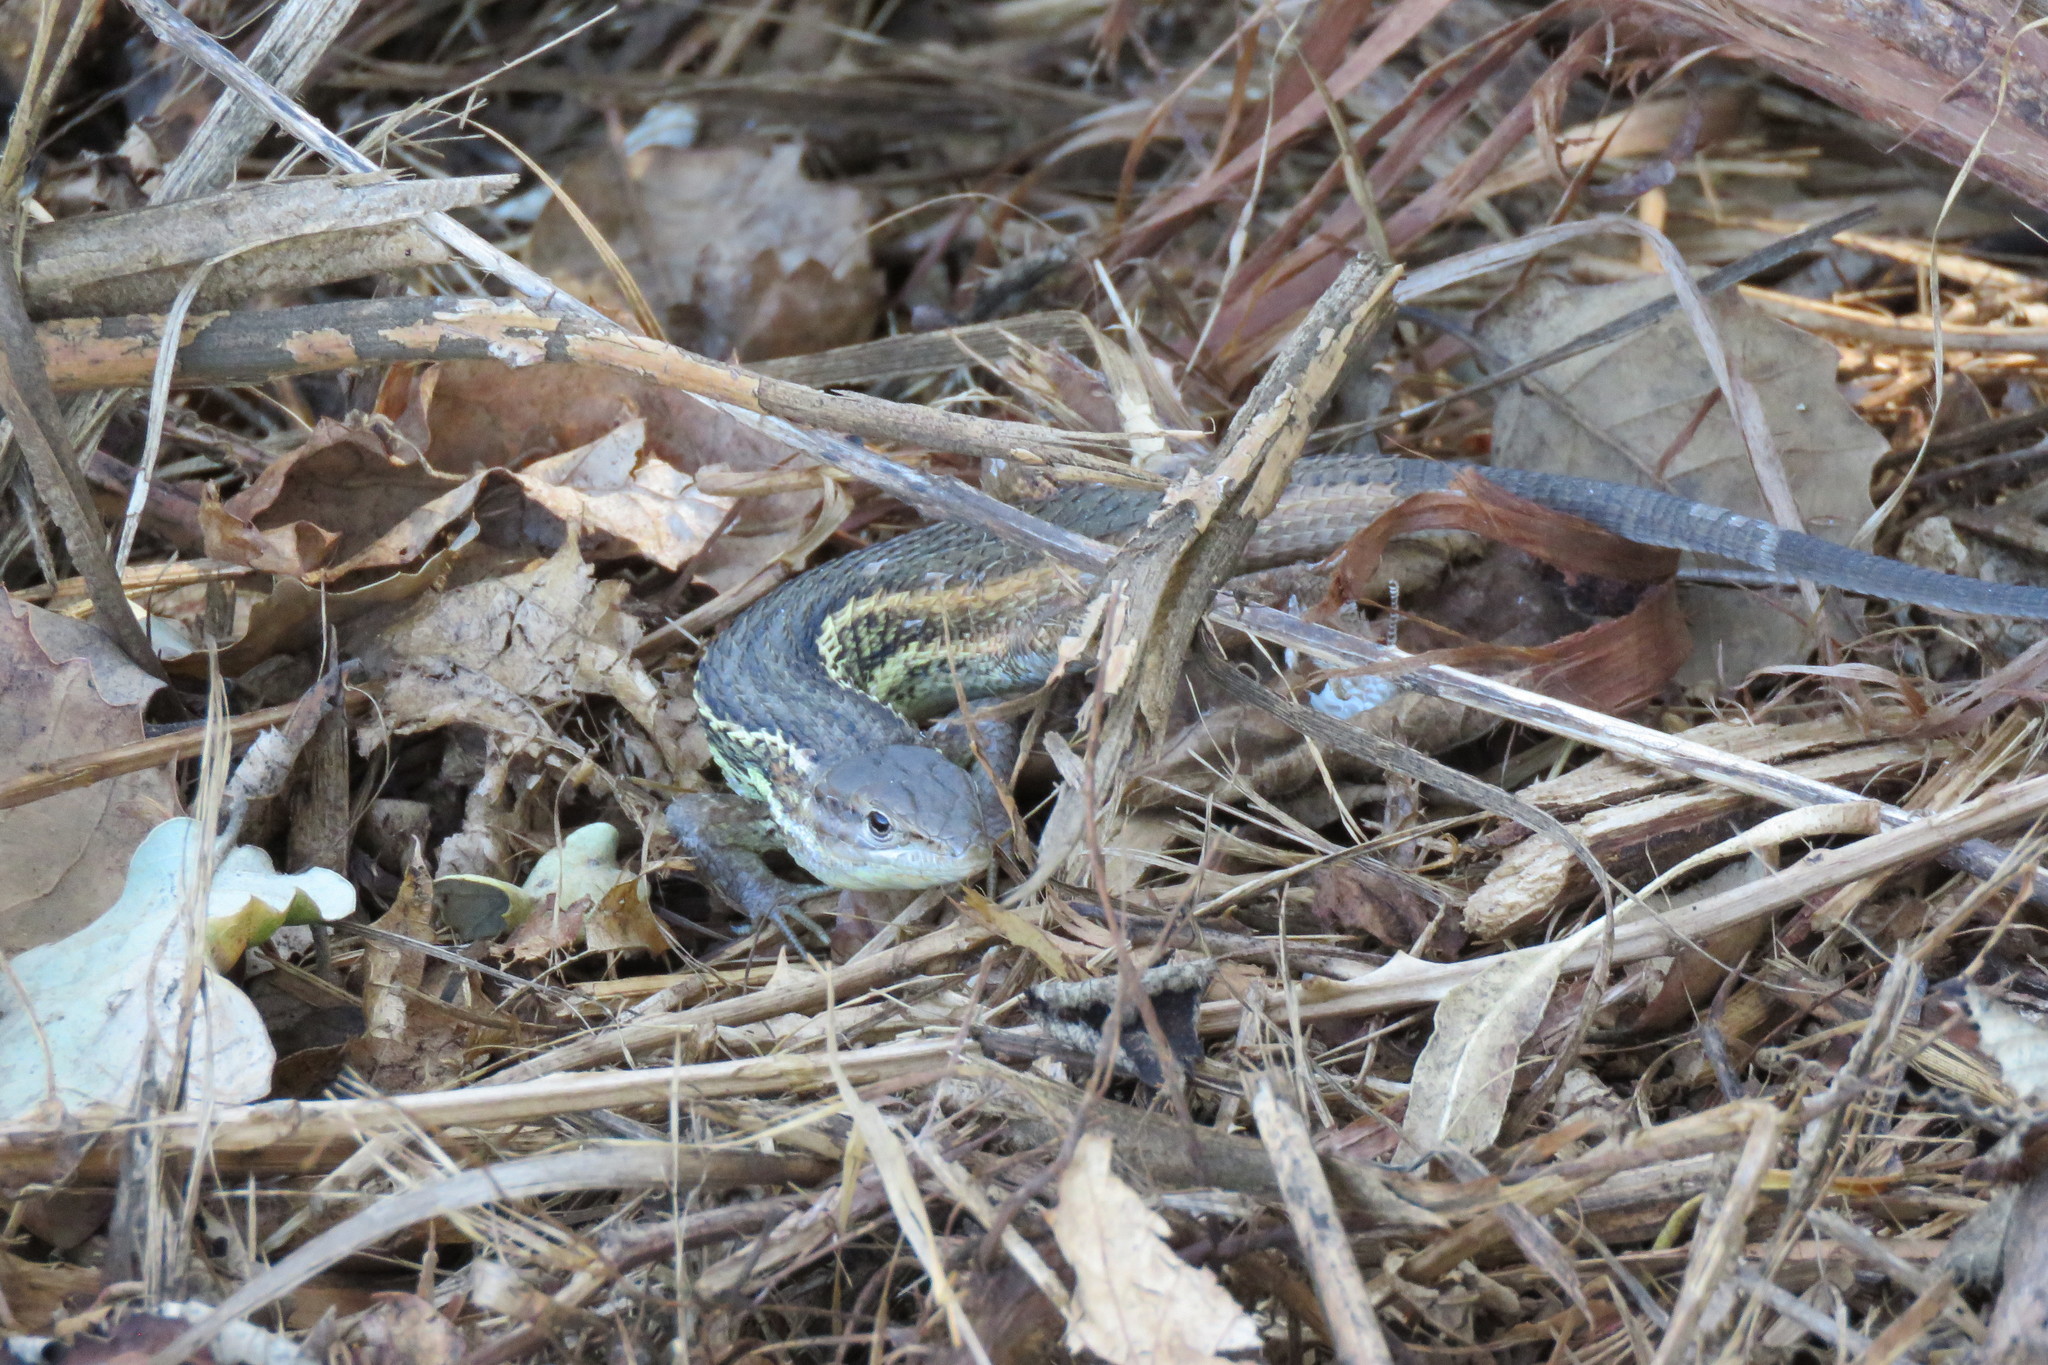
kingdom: Animalia
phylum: Chordata
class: Squamata
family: Lacertidae
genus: Psammodromus
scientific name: Psammodromus algirus
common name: Algerian psammodromus
